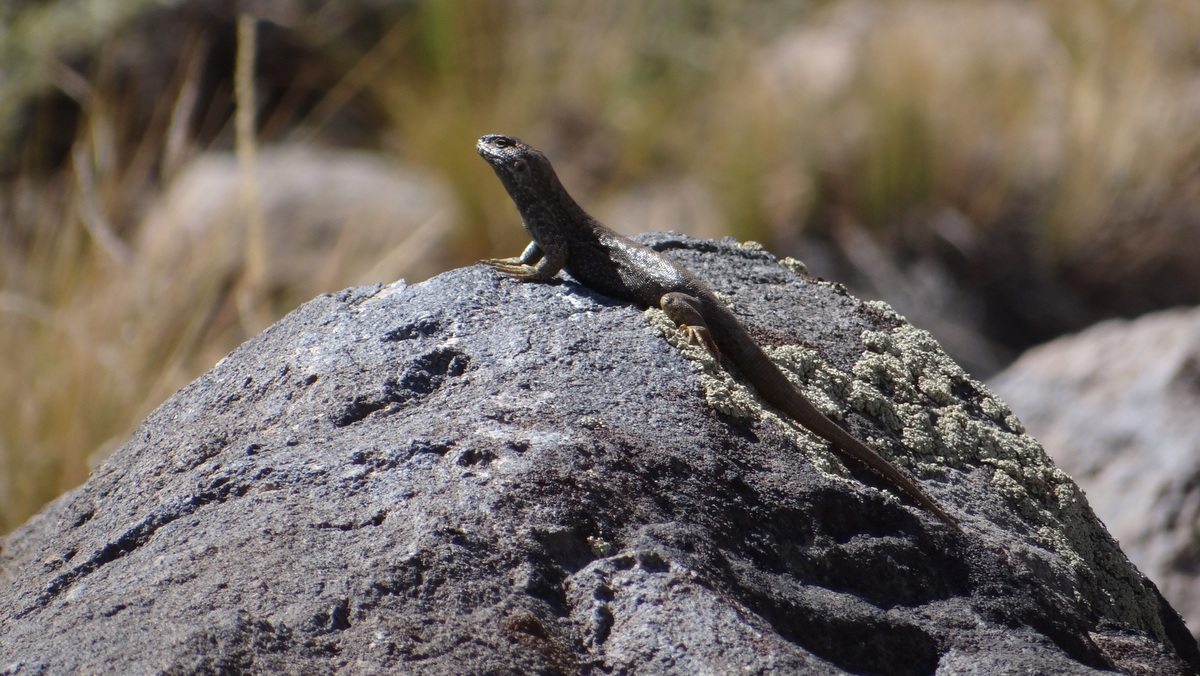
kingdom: Animalia
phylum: Chordata
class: Squamata
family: Liolaemidae
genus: Liolaemus
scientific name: Liolaemus buergeri
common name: Buerger's tree iguana
